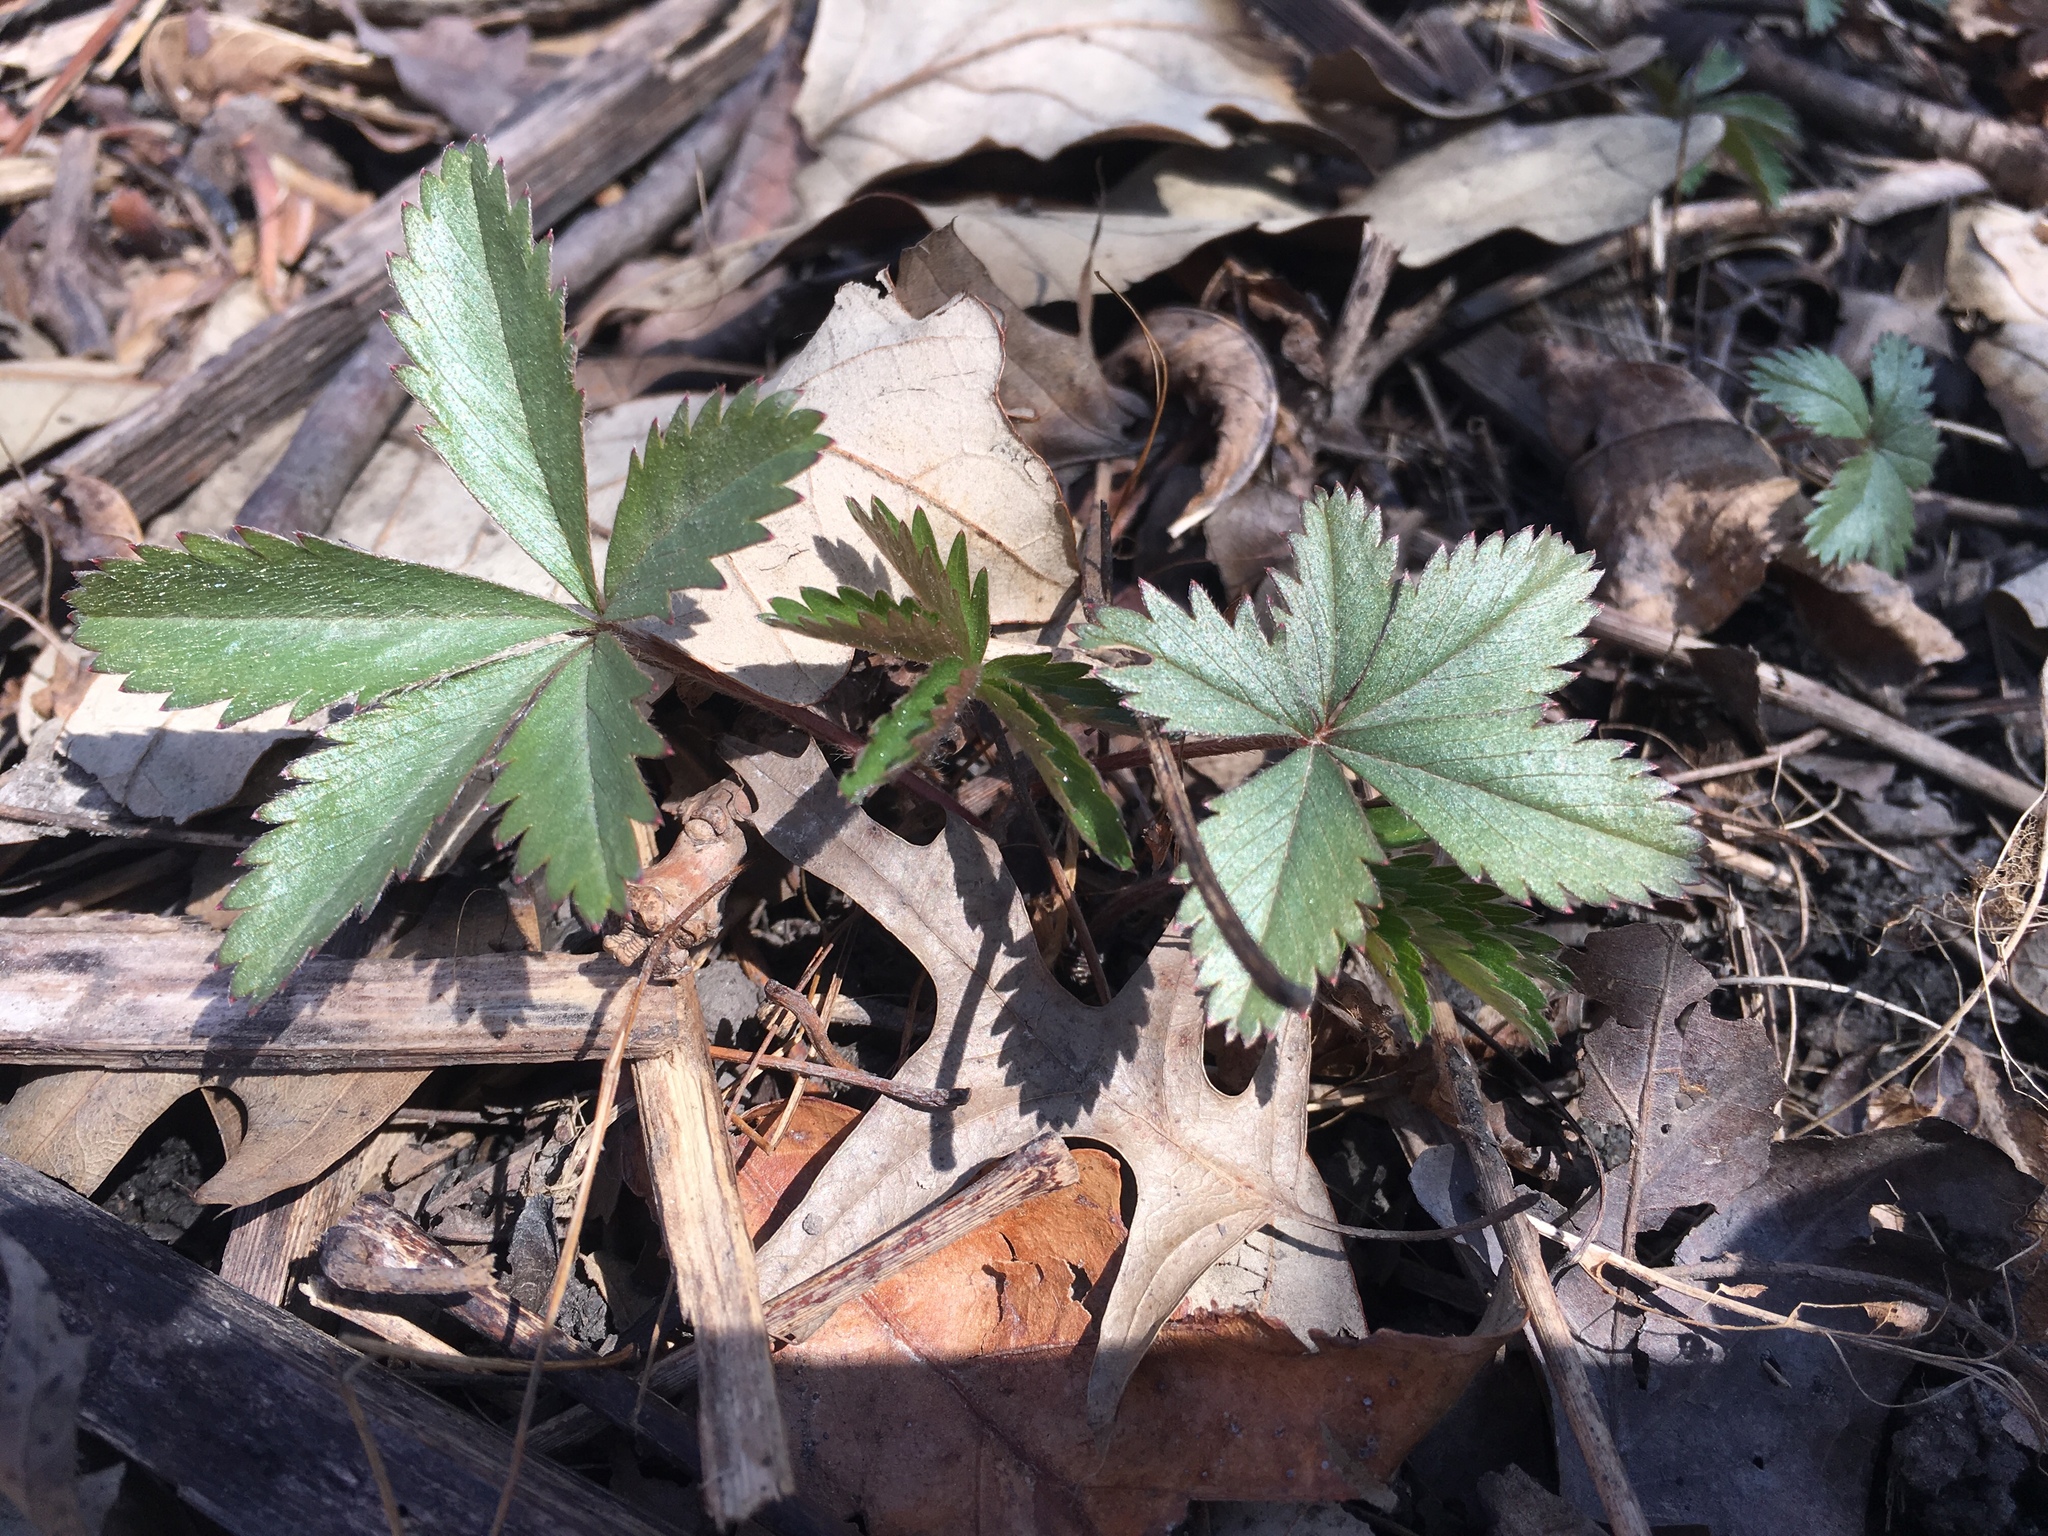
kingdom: Plantae
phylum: Tracheophyta
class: Magnoliopsida
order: Rosales
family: Rosaceae
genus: Potentilla
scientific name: Potentilla simplex
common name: Old field cinquefoil
